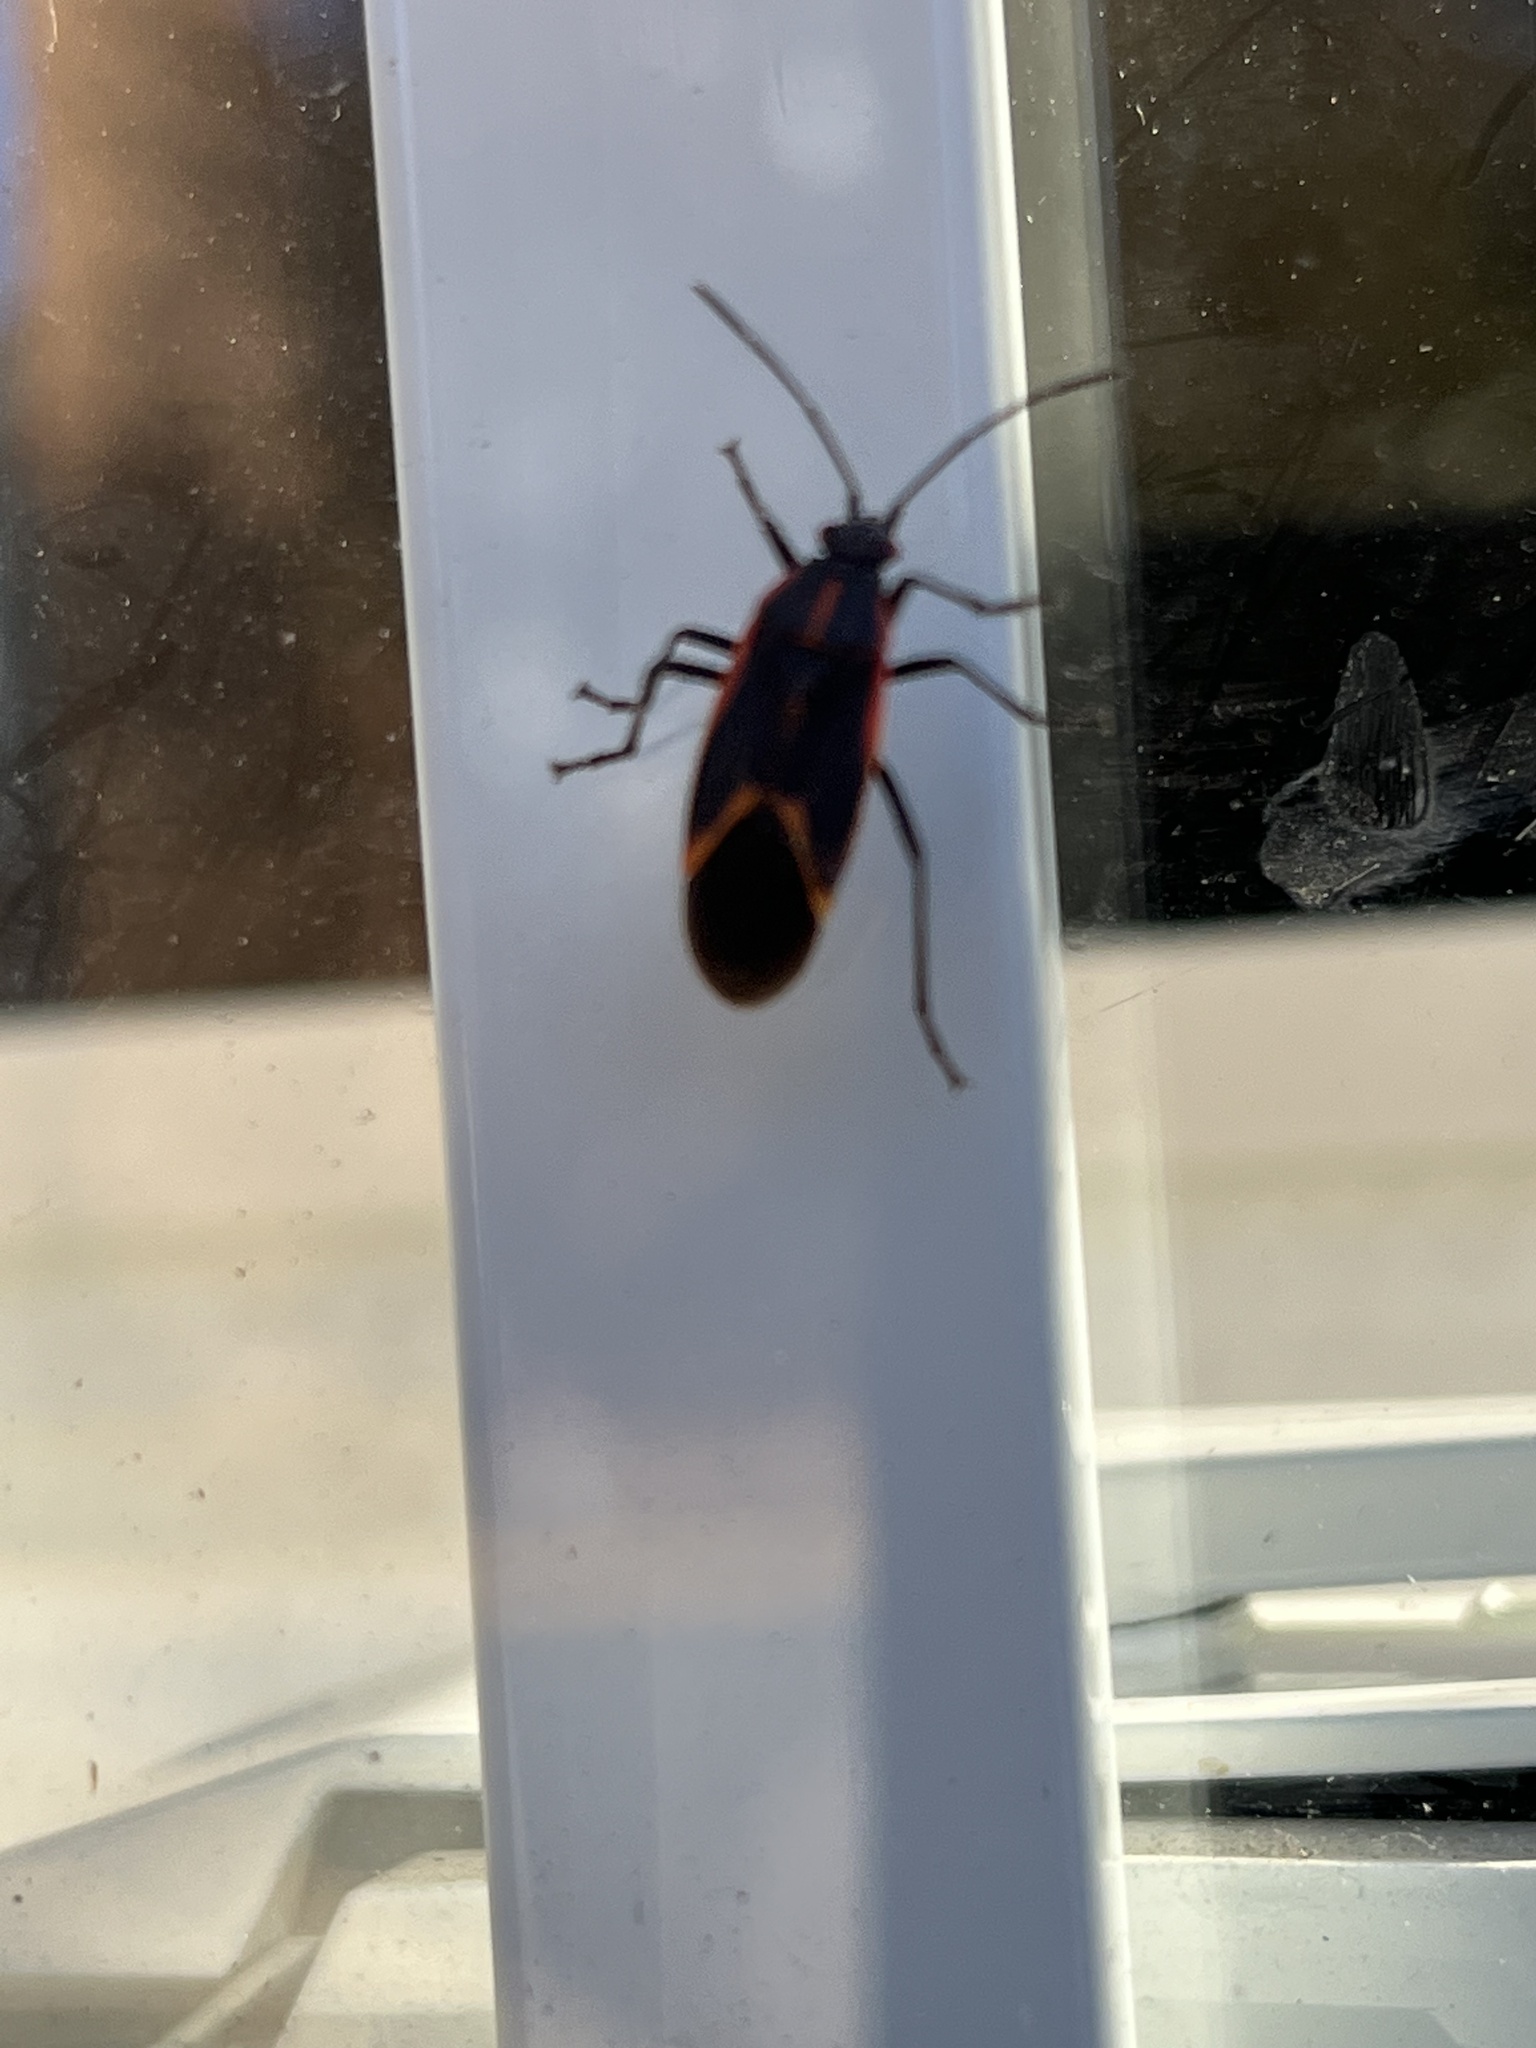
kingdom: Animalia
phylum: Arthropoda
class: Insecta
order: Hemiptera
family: Rhopalidae
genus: Boisea
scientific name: Boisea trivittata
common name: Boxelder bug
